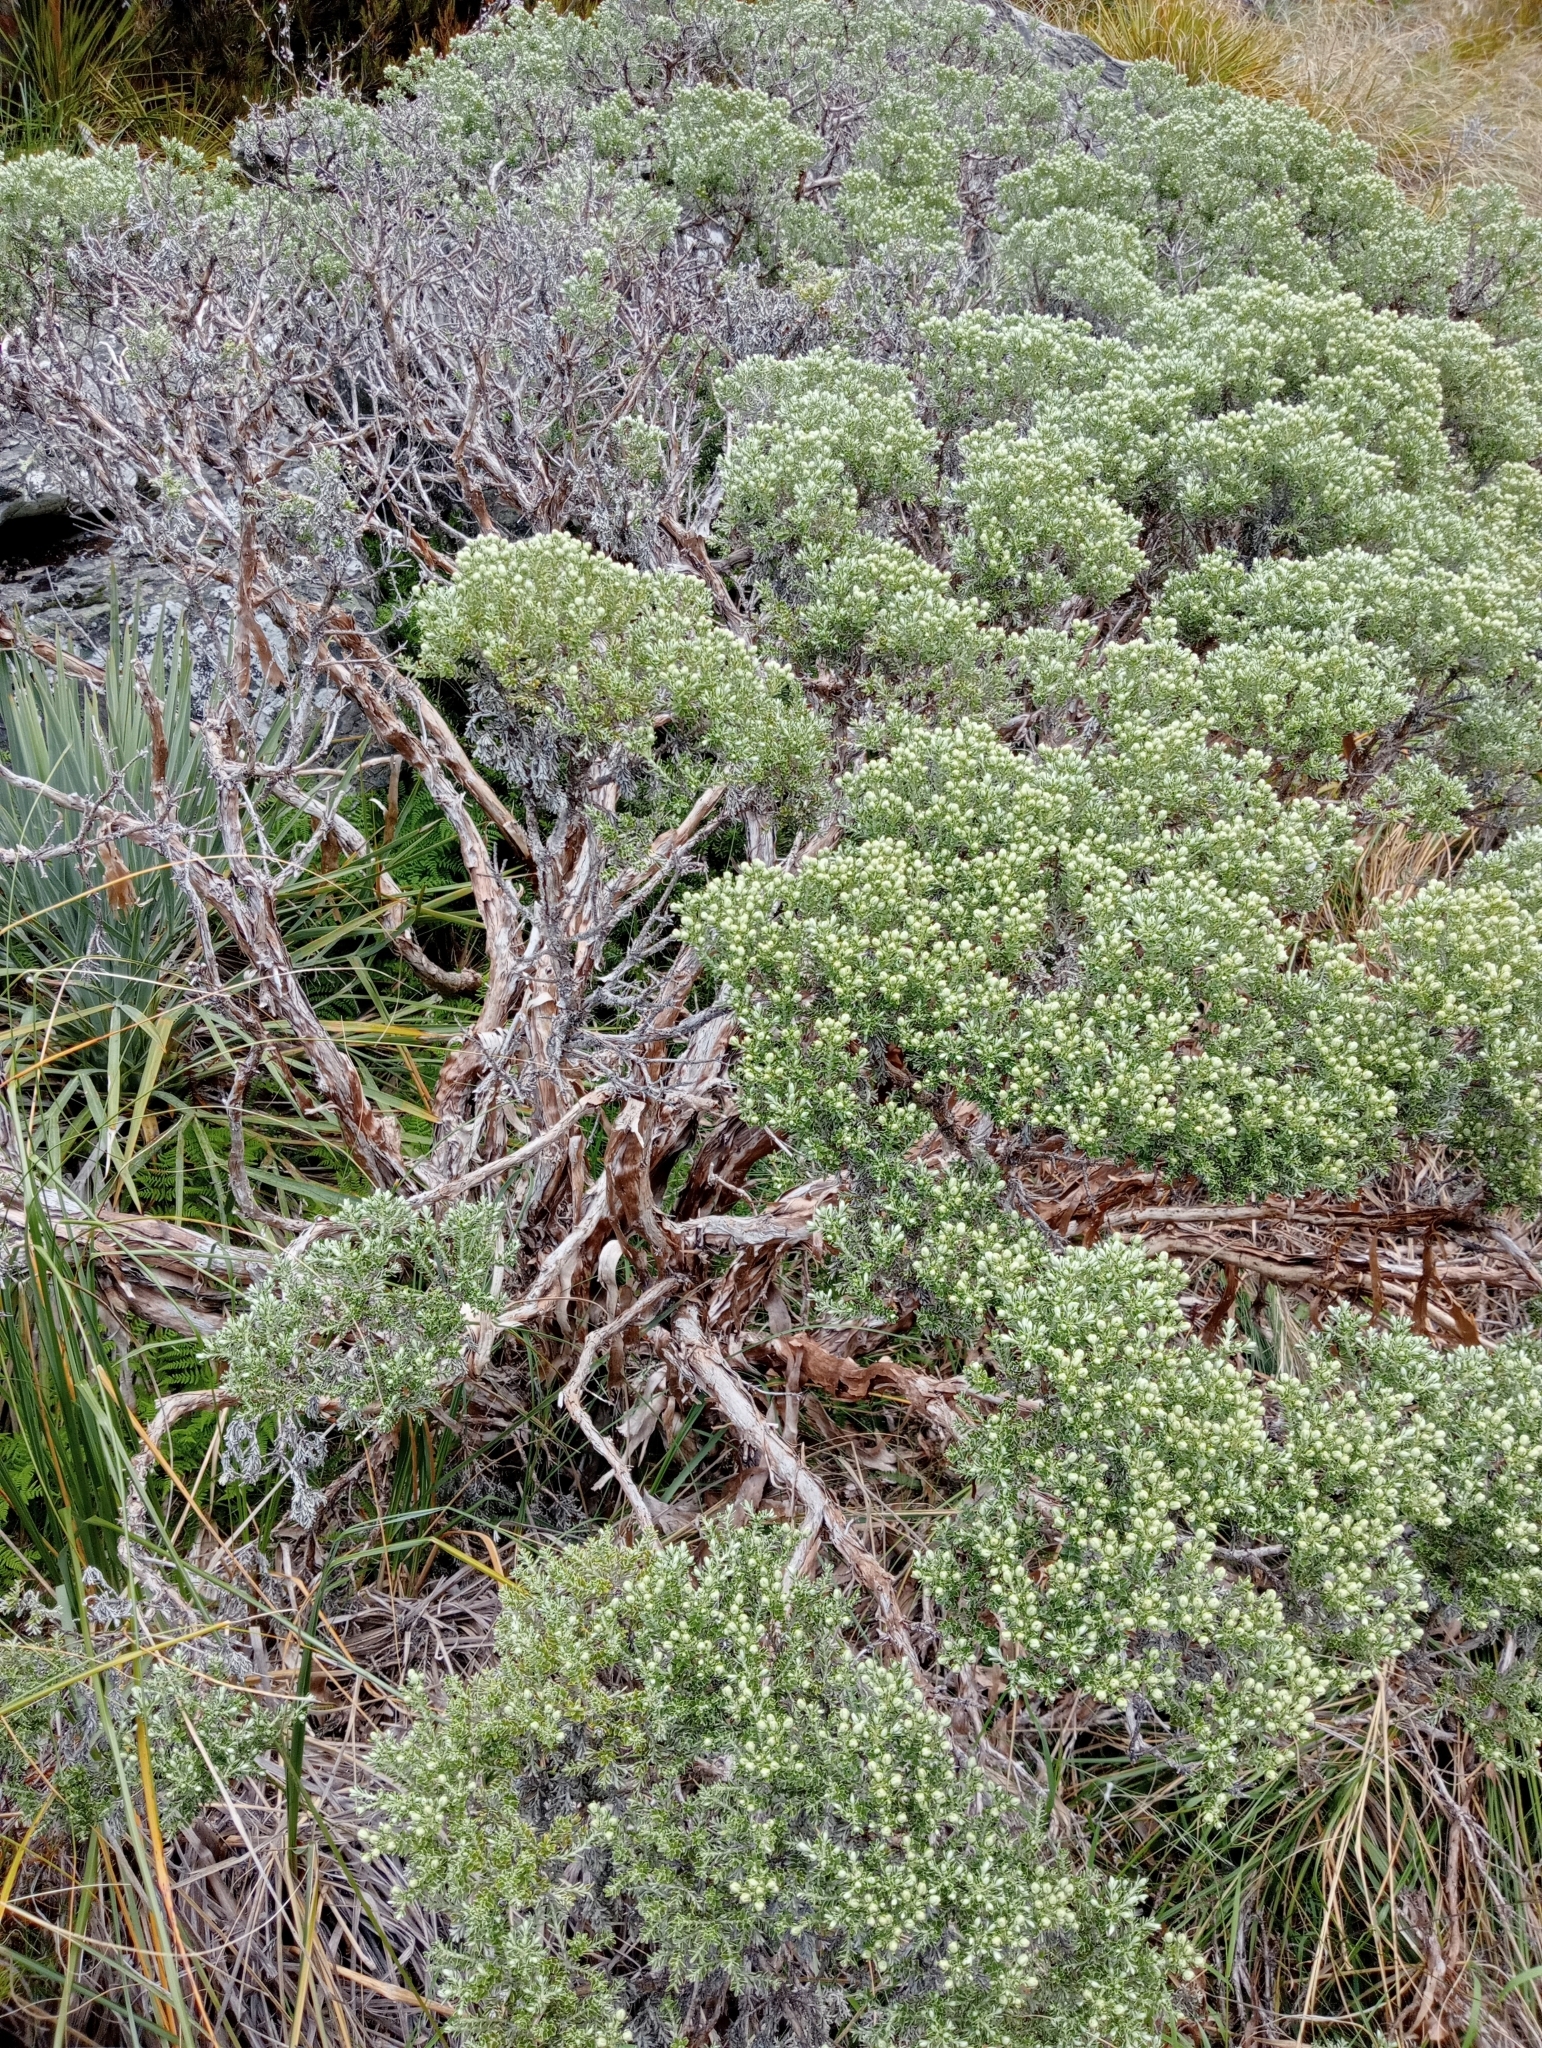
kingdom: Plantae
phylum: Tracheophyta
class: Magnoliopsida
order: Asterales
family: Asteraceae
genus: Brachyglottis
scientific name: Brachyglottis cassinioides
